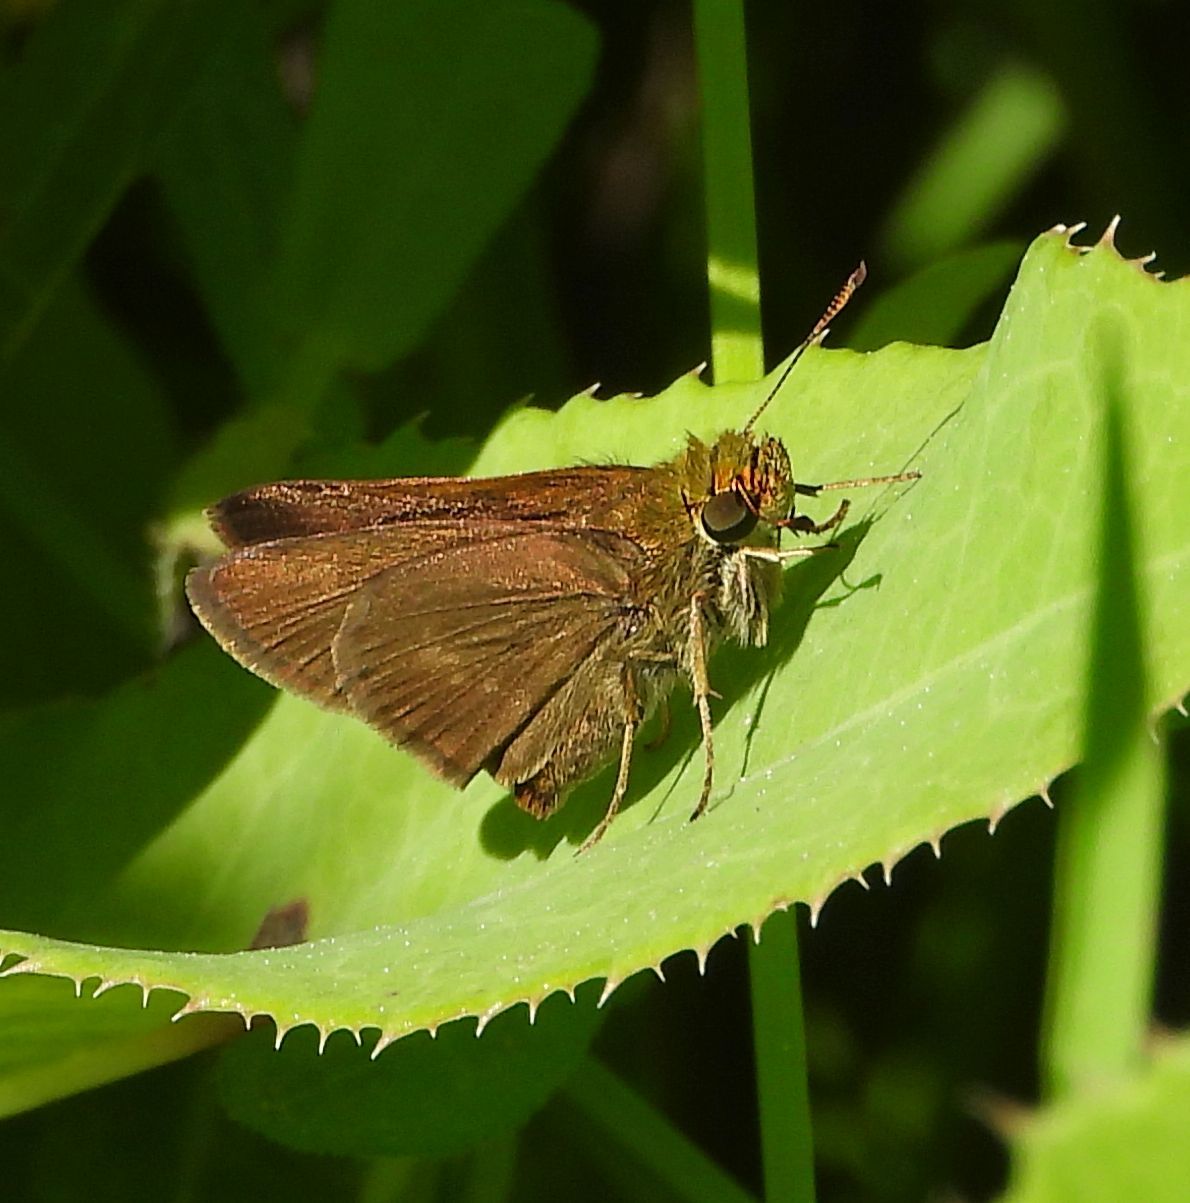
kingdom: Animalia
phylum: Arthropoda
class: Insecta
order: Lepidoptera
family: Hesperiidae
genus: Euphyes
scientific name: Euphyes vestris
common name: Dun skipper
